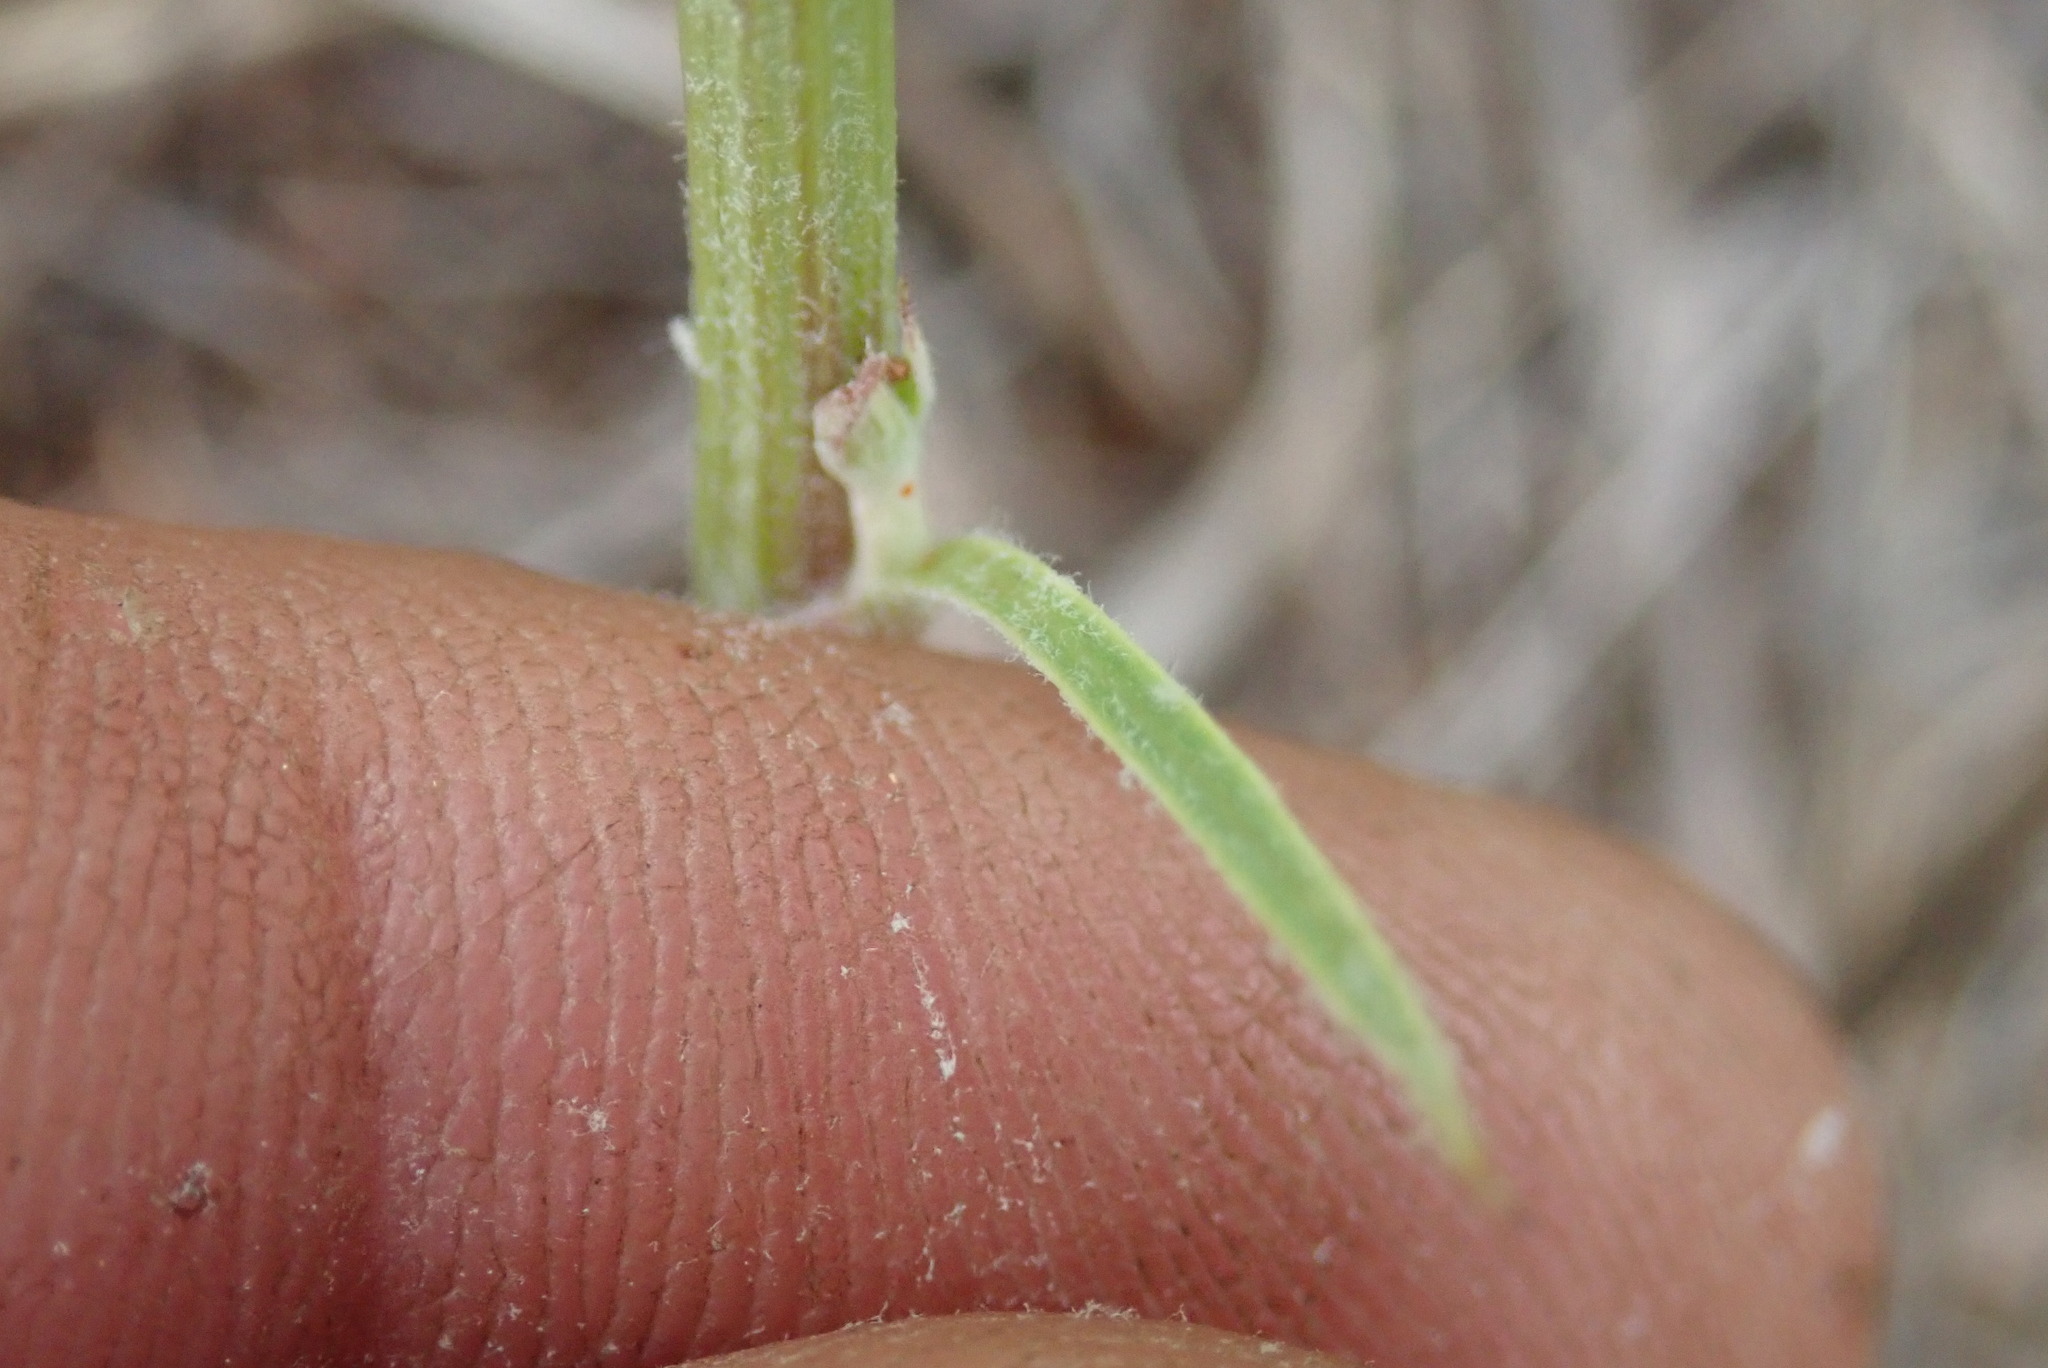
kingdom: Plantae
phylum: Tracheophyta
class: Magnoliopsida
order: Asterales
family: Asteraceae
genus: Crepis
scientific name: Crepis hypochoeridea
